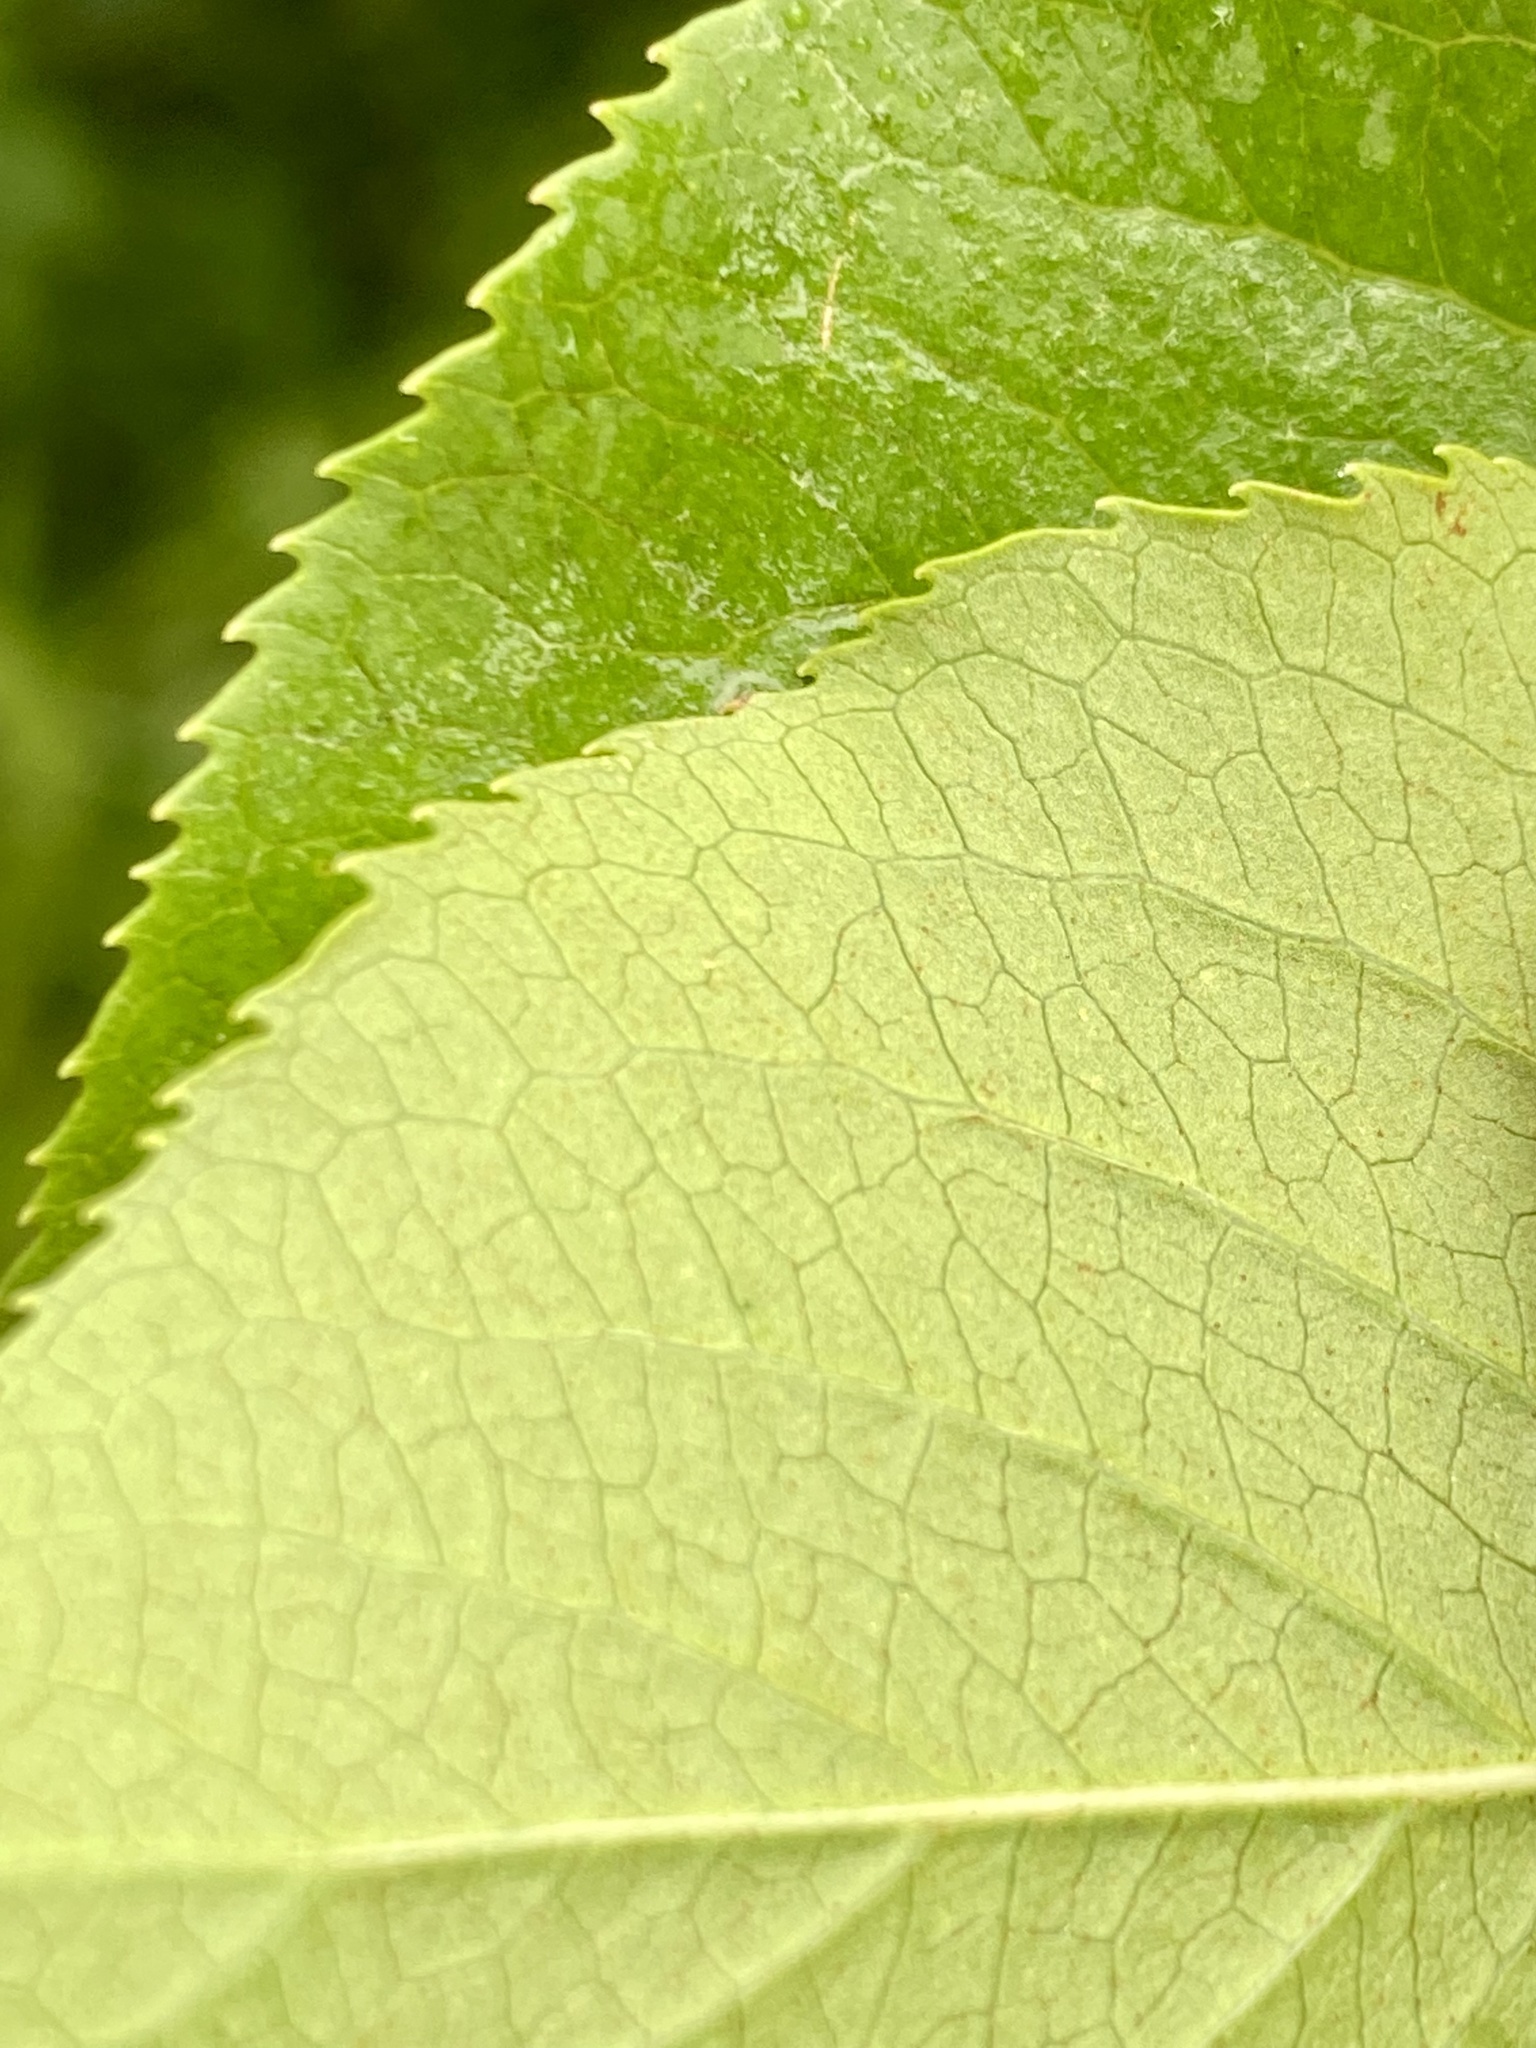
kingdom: Plantae
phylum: Tracheophyta
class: Magnoliopsida
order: Dipsacales
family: Viburnaceae
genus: Viburnum
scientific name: Viburnum lentago
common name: Black haw
